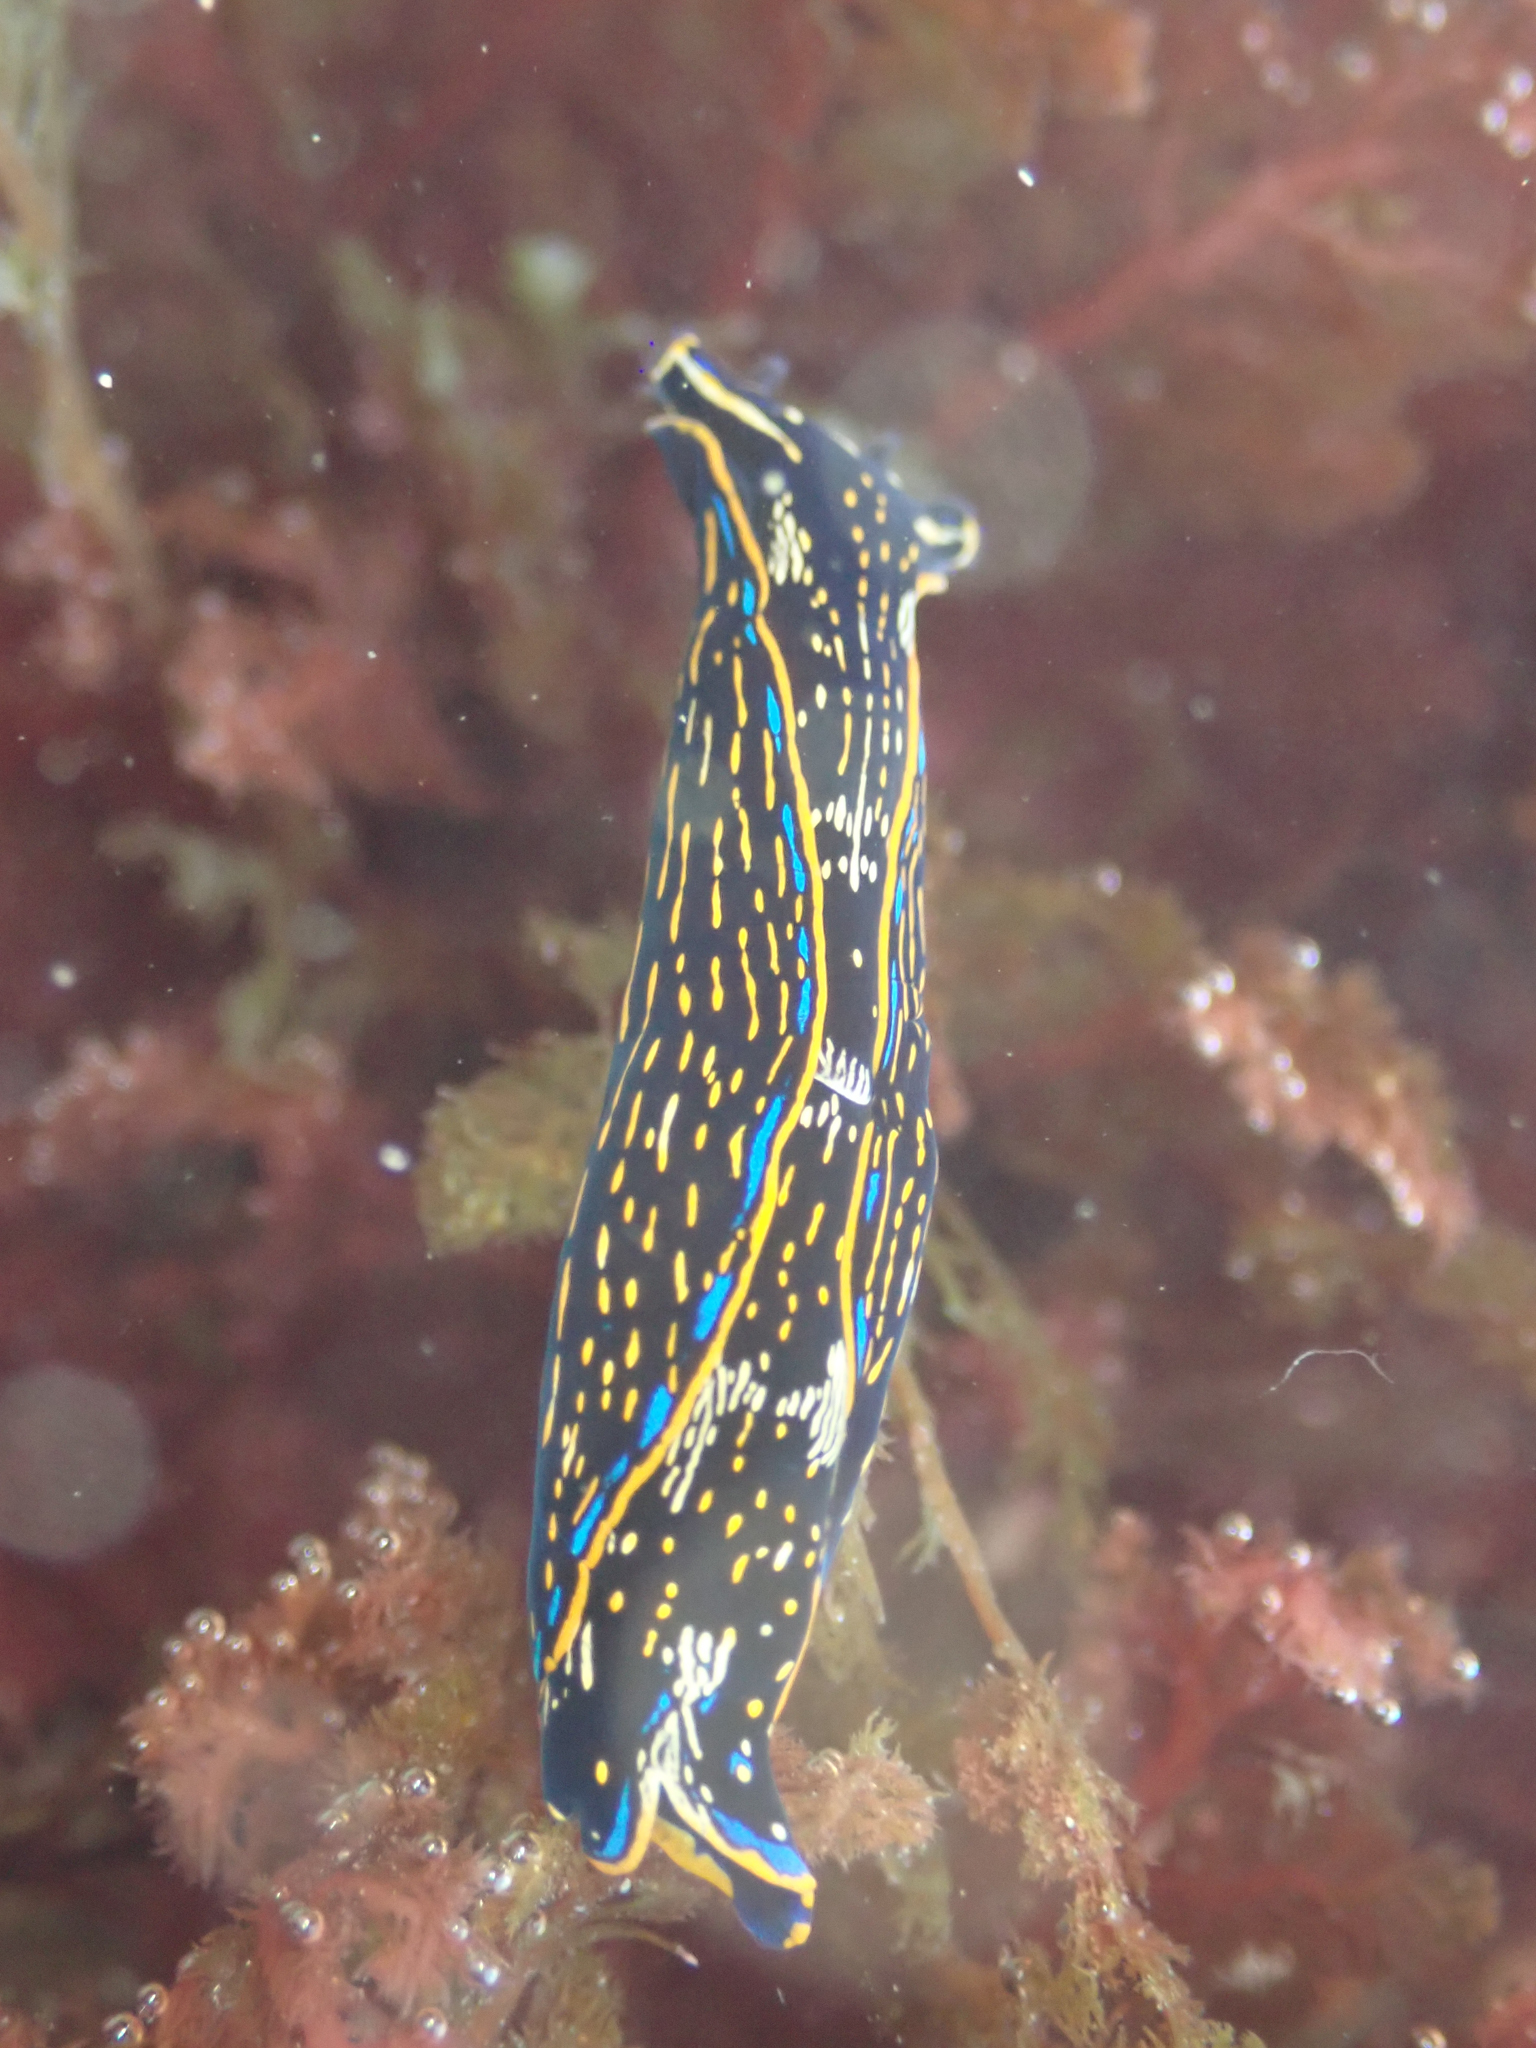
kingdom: Animalia
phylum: Mollusca
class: Gastropoda
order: Cephalaspidea
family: Aglajidae
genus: Navanax
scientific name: Navanax inermis
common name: California aglaja
